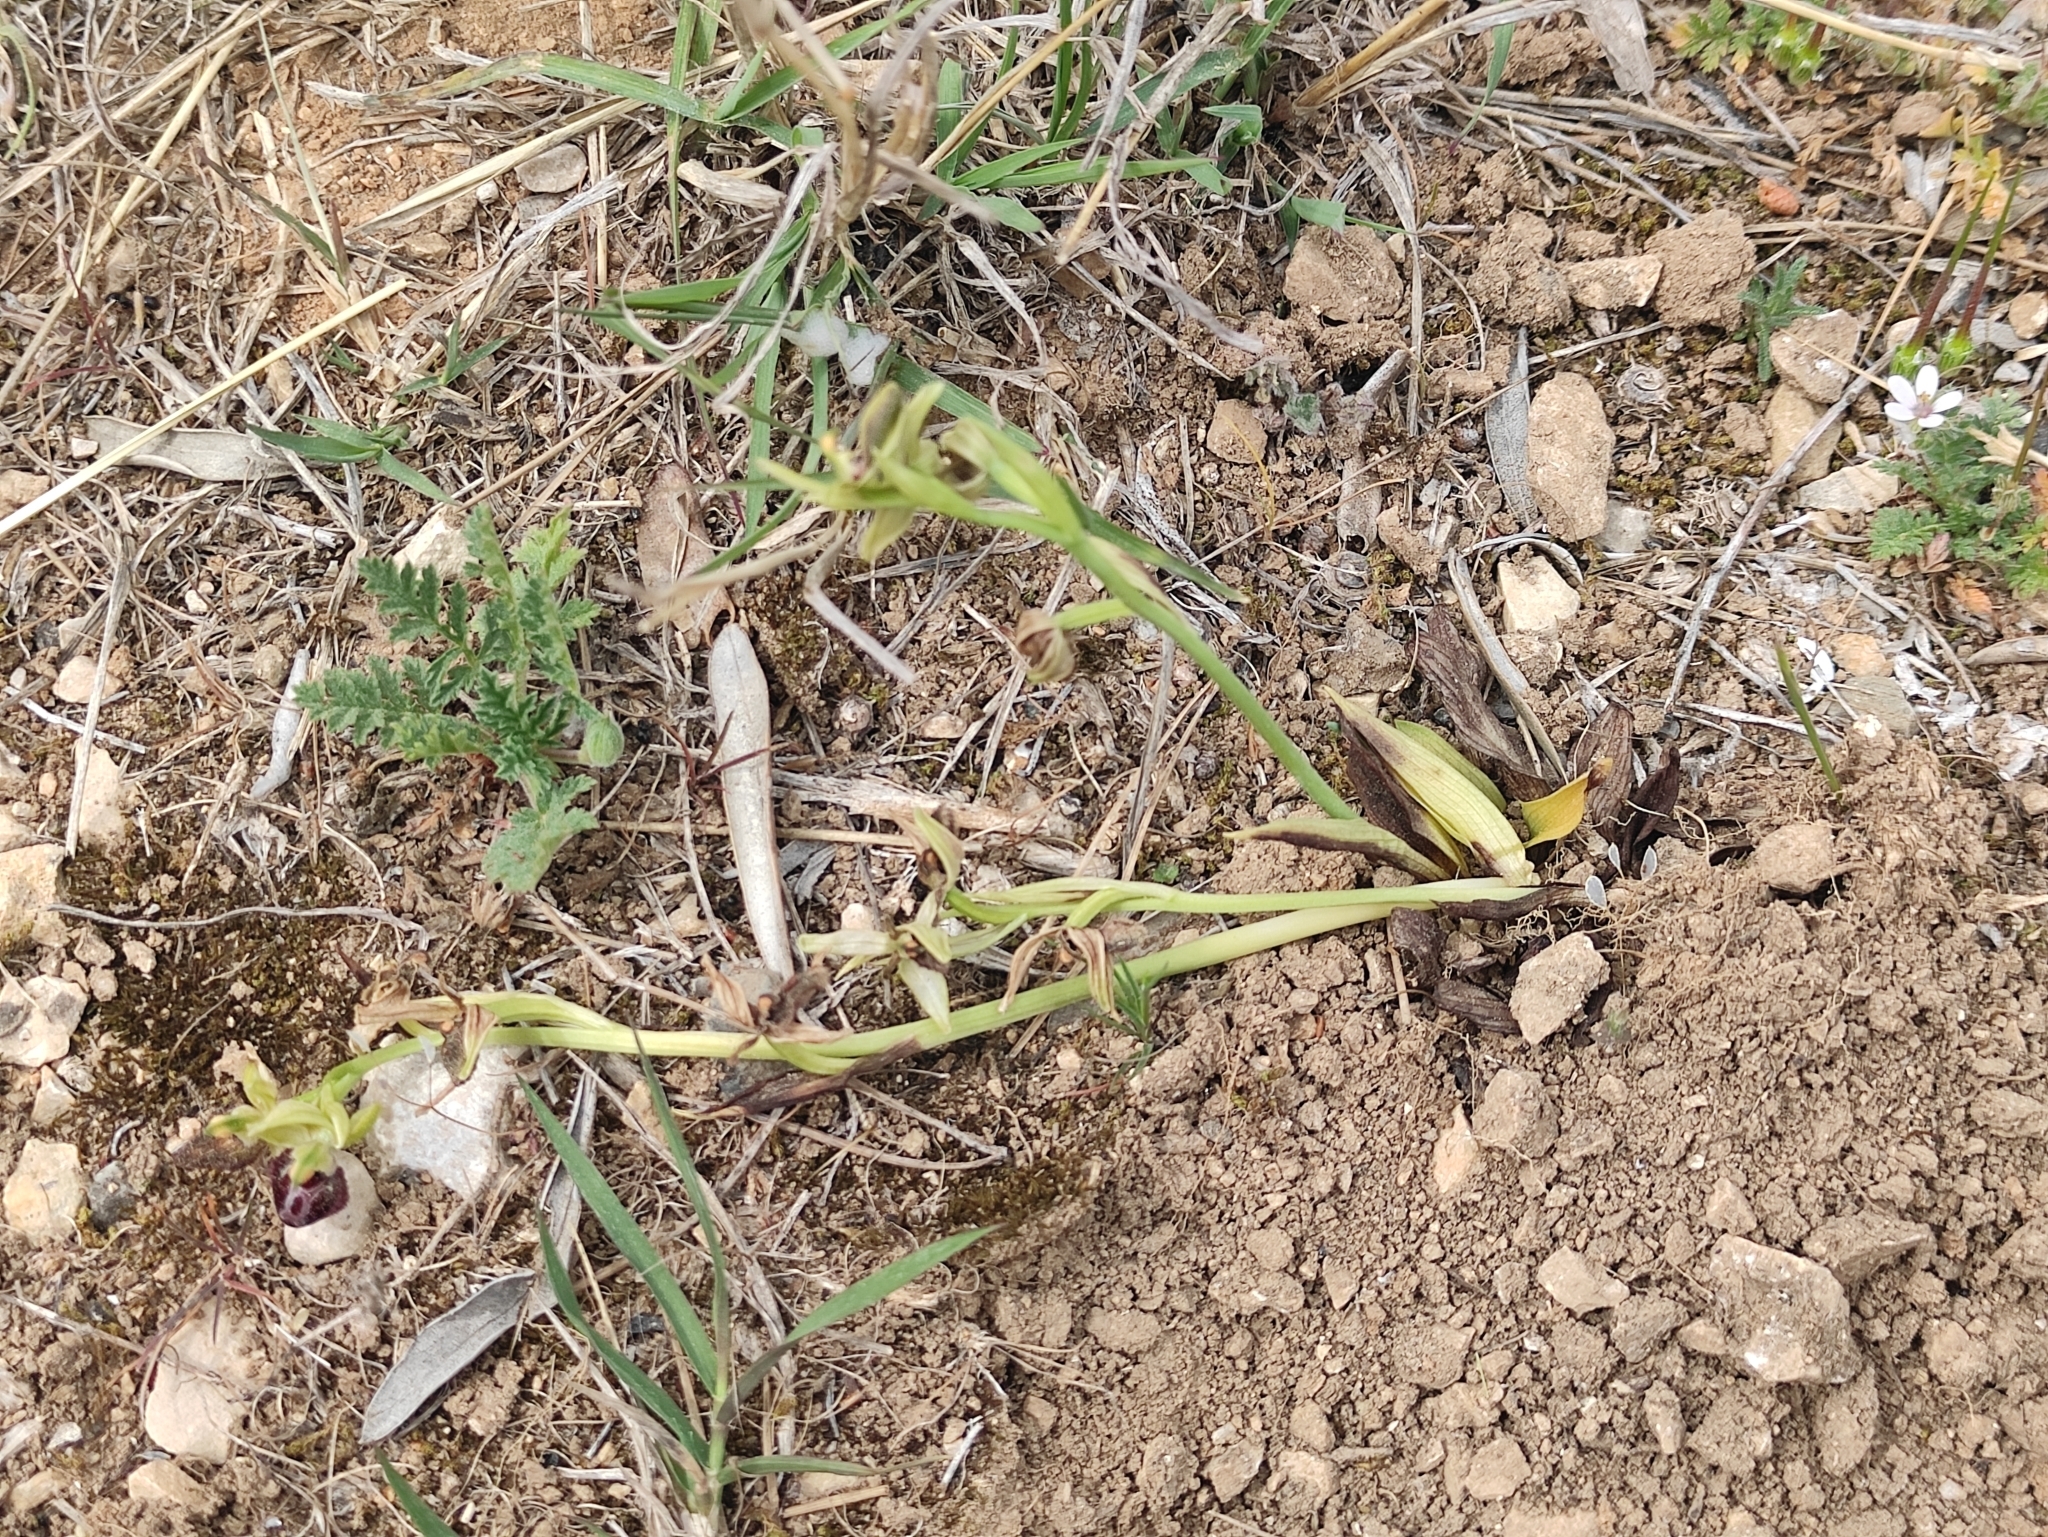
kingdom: Plantae
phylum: Tracheophyta
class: Liliopsida
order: Asparagales
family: Orchidaceae
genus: Ophrys
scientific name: Ophrys sphegodes
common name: Early spider-orchid
